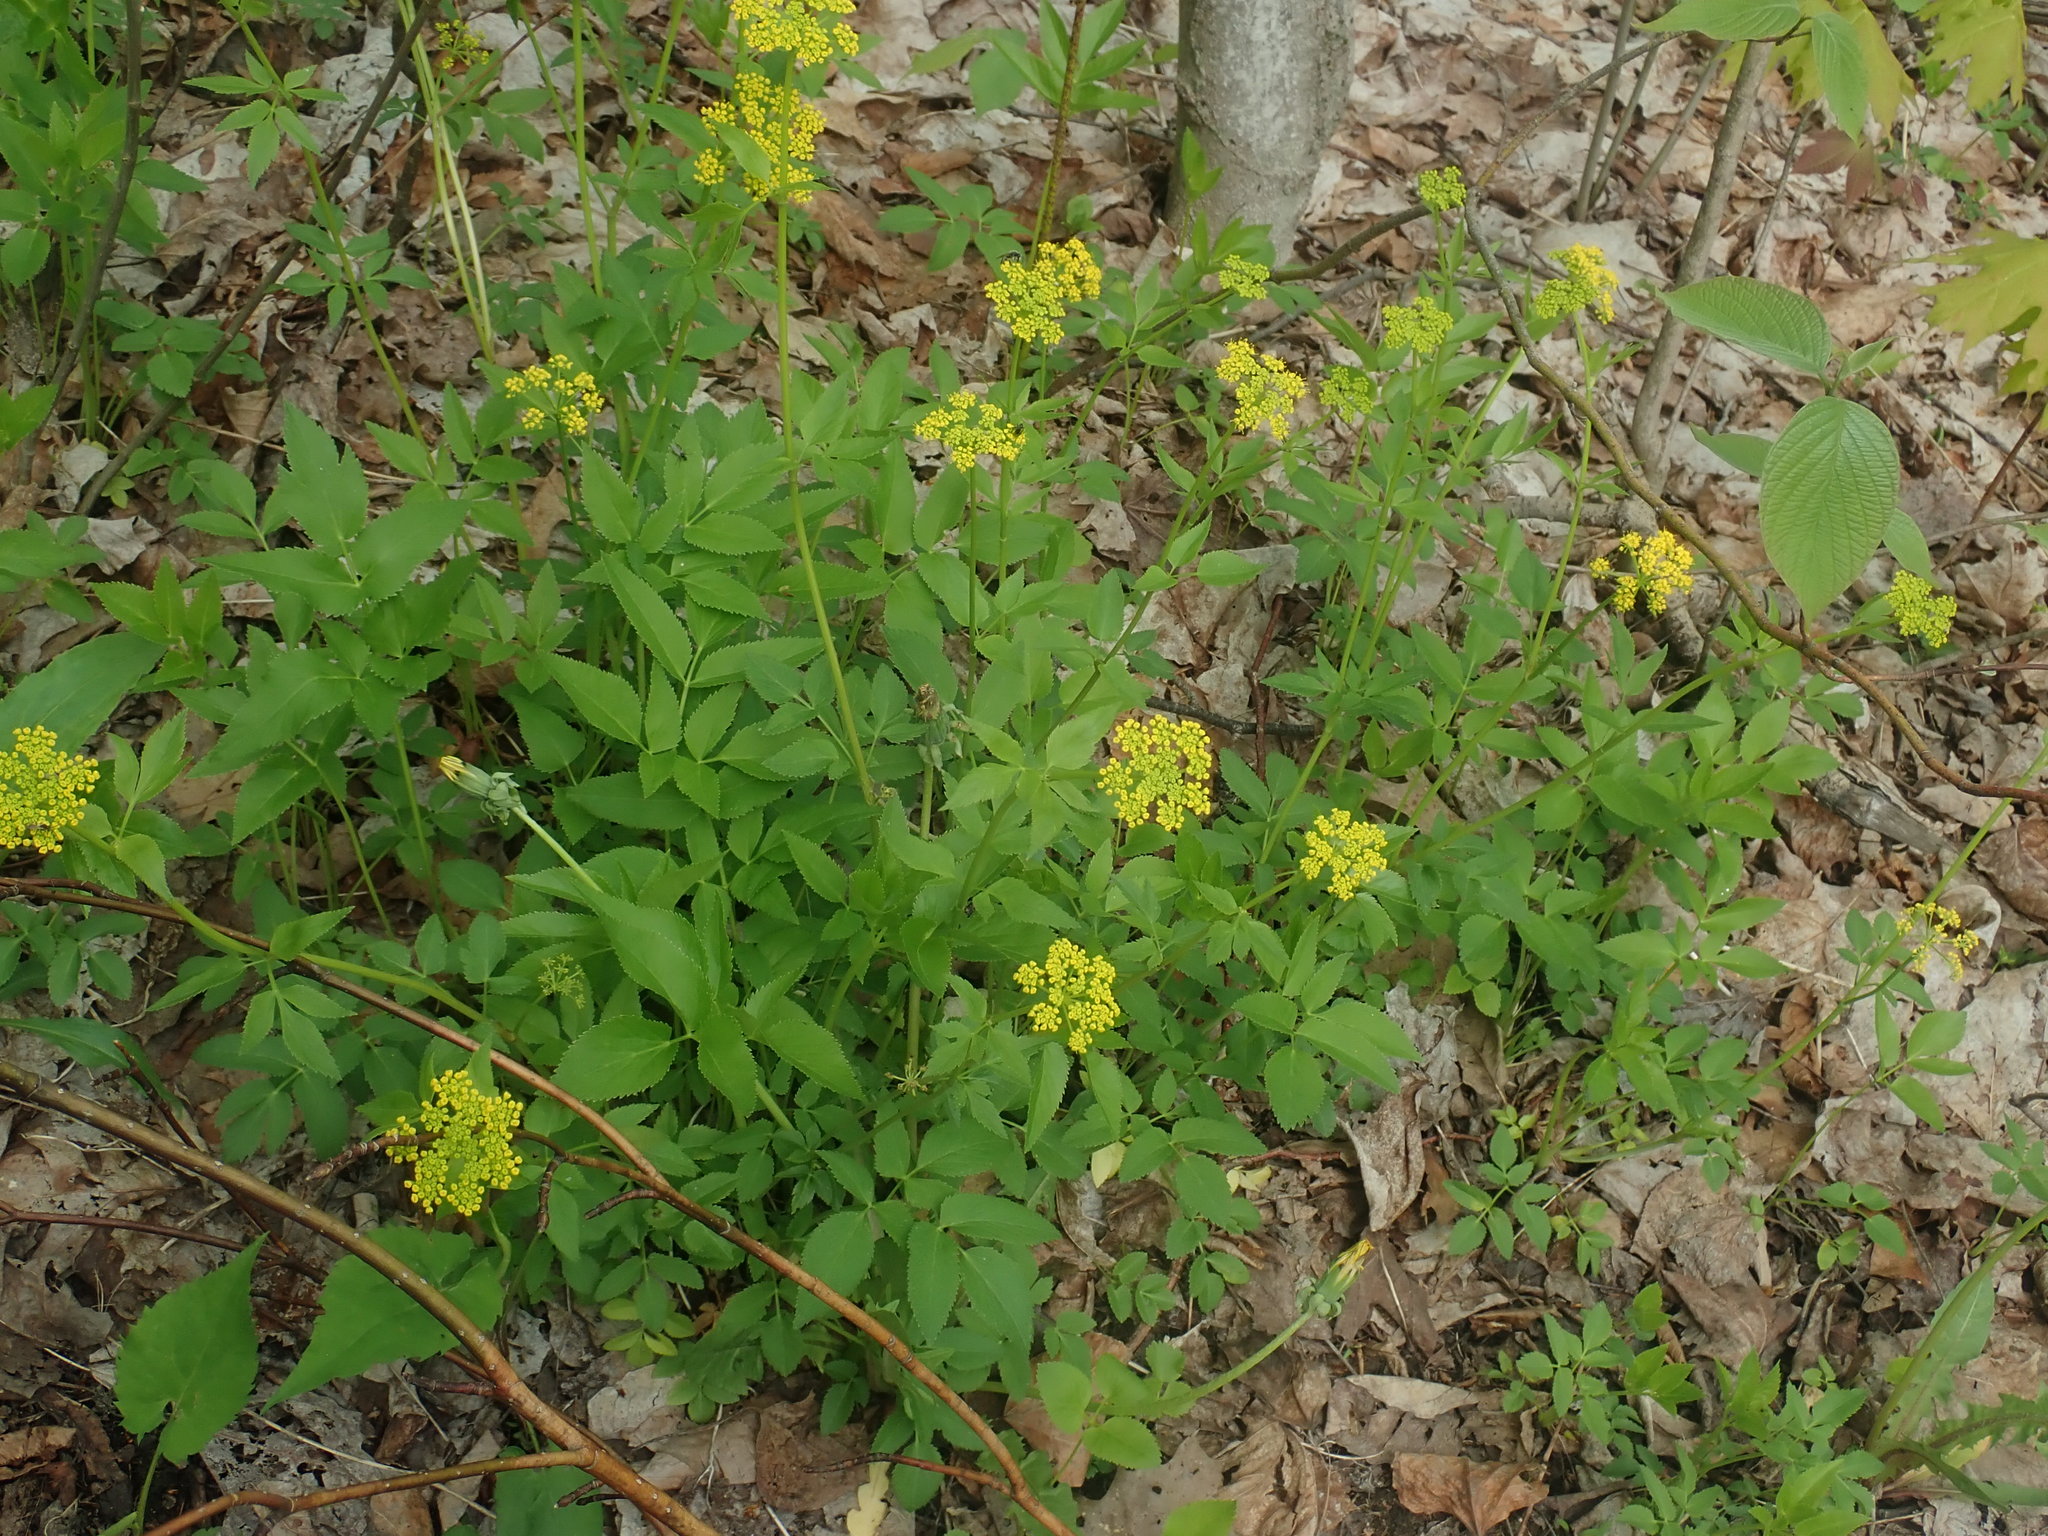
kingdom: Plantae
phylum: Tracheophyta
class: Magnoliopsida
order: Apiales
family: Apiaceae
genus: Zizia
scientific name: Zizia aurea
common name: Golden alexanders
